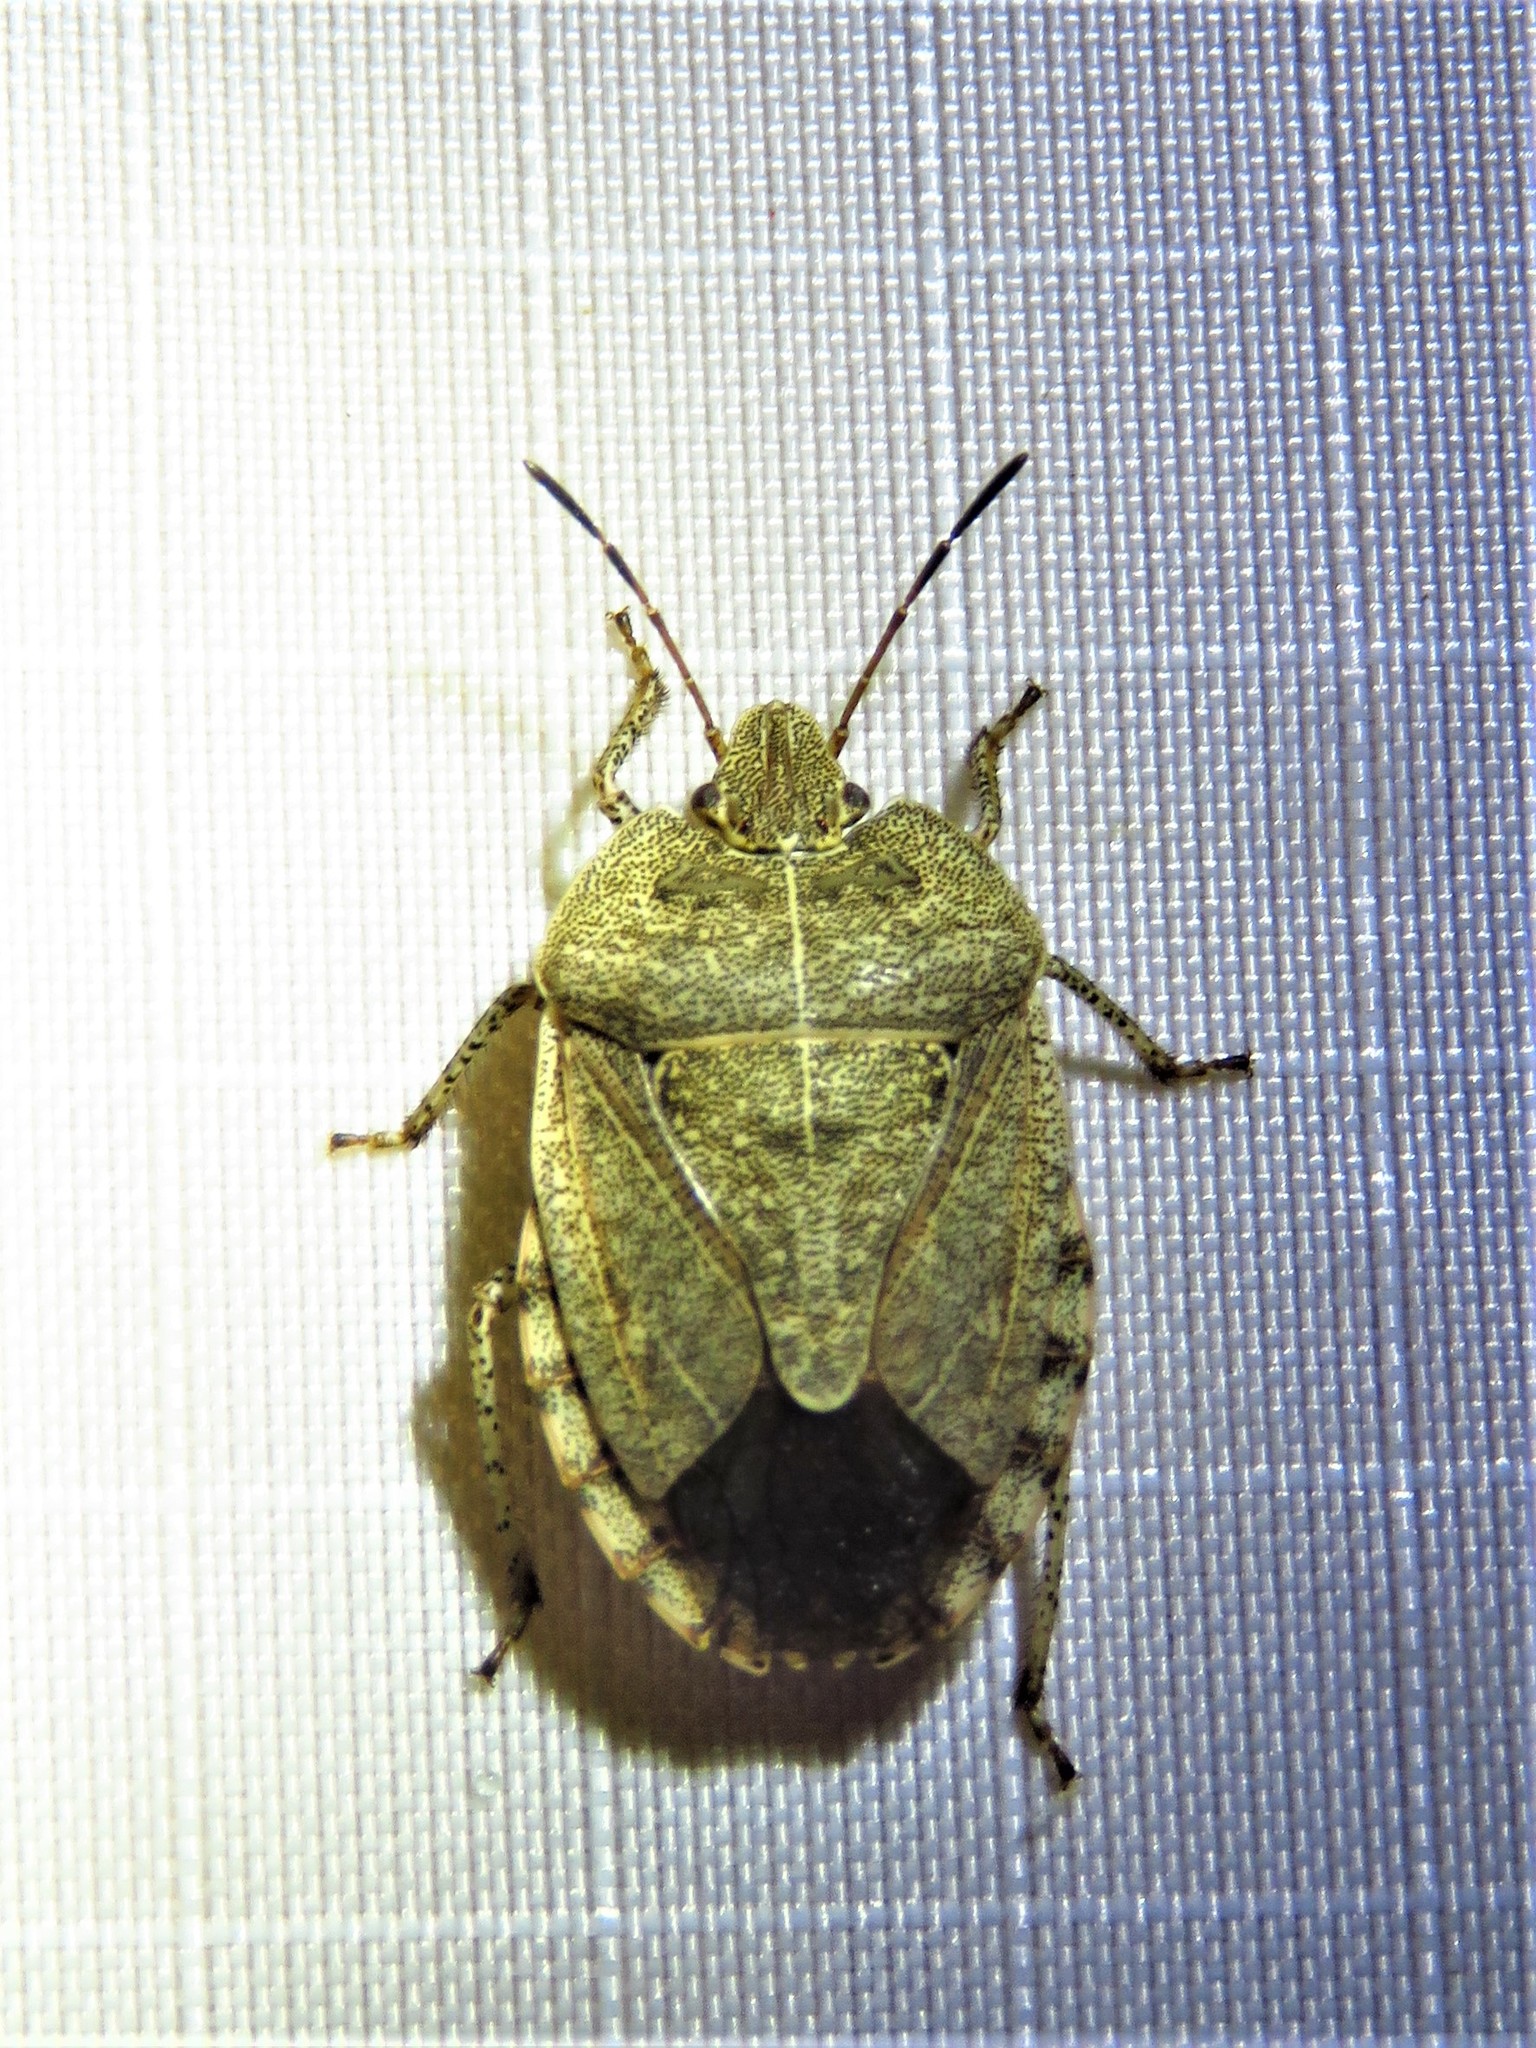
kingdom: Animalia
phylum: Arthropoda
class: Insecta
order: Hemiptera
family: Pentatomidae
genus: Menecles
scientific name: Menecles insertus
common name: Elf shoe stink bug
